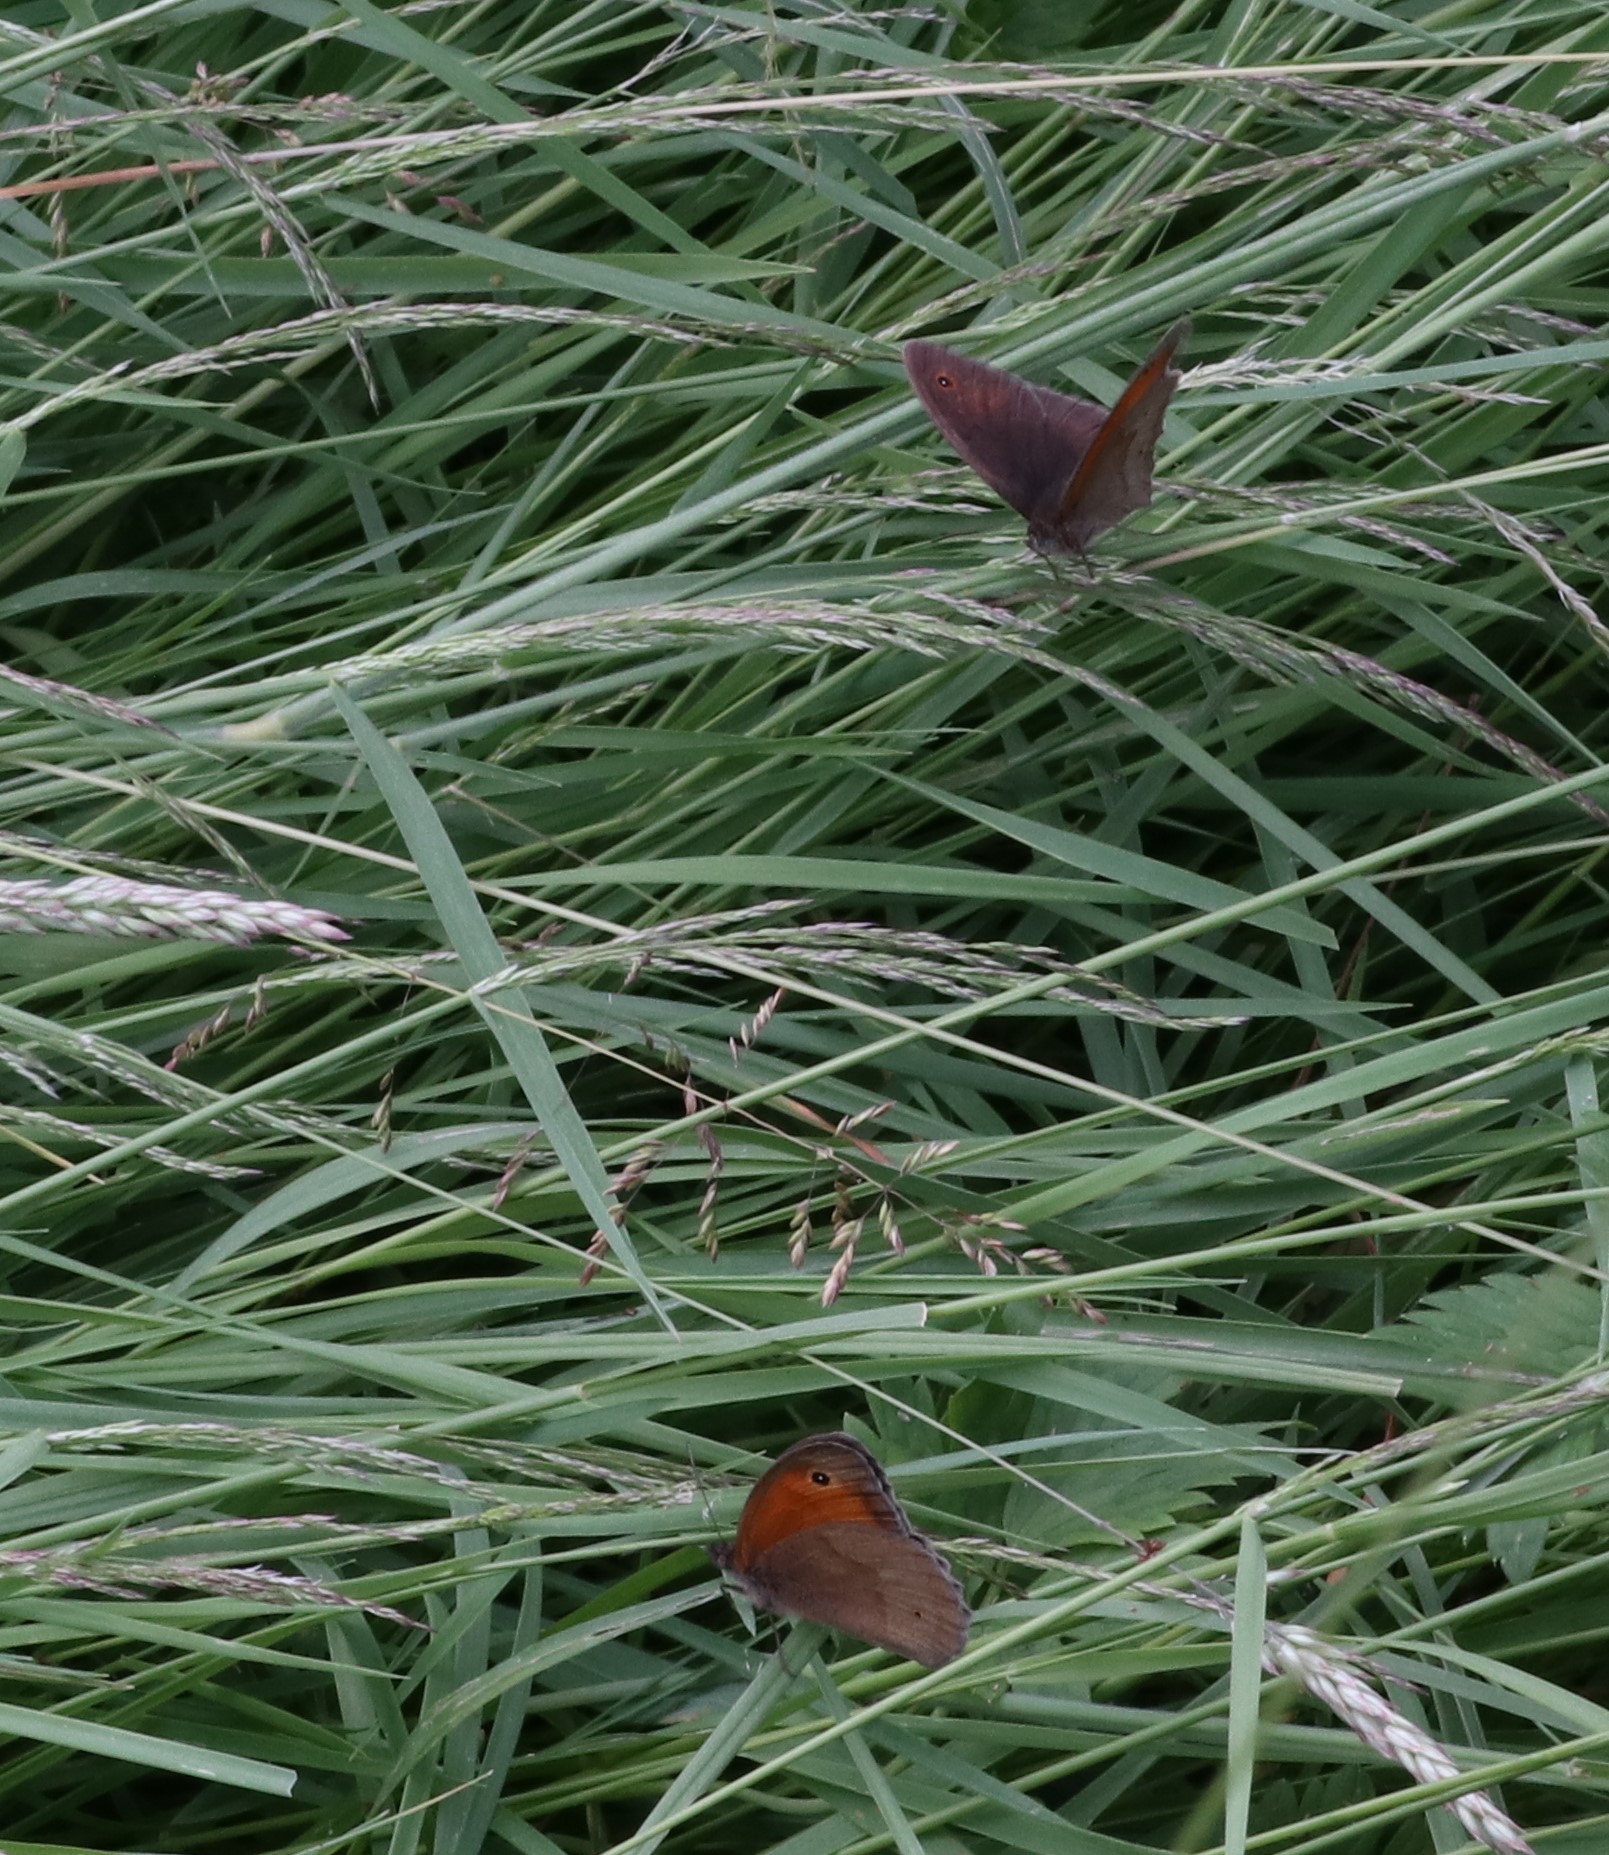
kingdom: Animalia
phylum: Arthropoda
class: Insecta
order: Lepidoptera
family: Nymphalidae
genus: Maniola
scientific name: Maniola jurtina
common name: Meadow brown
